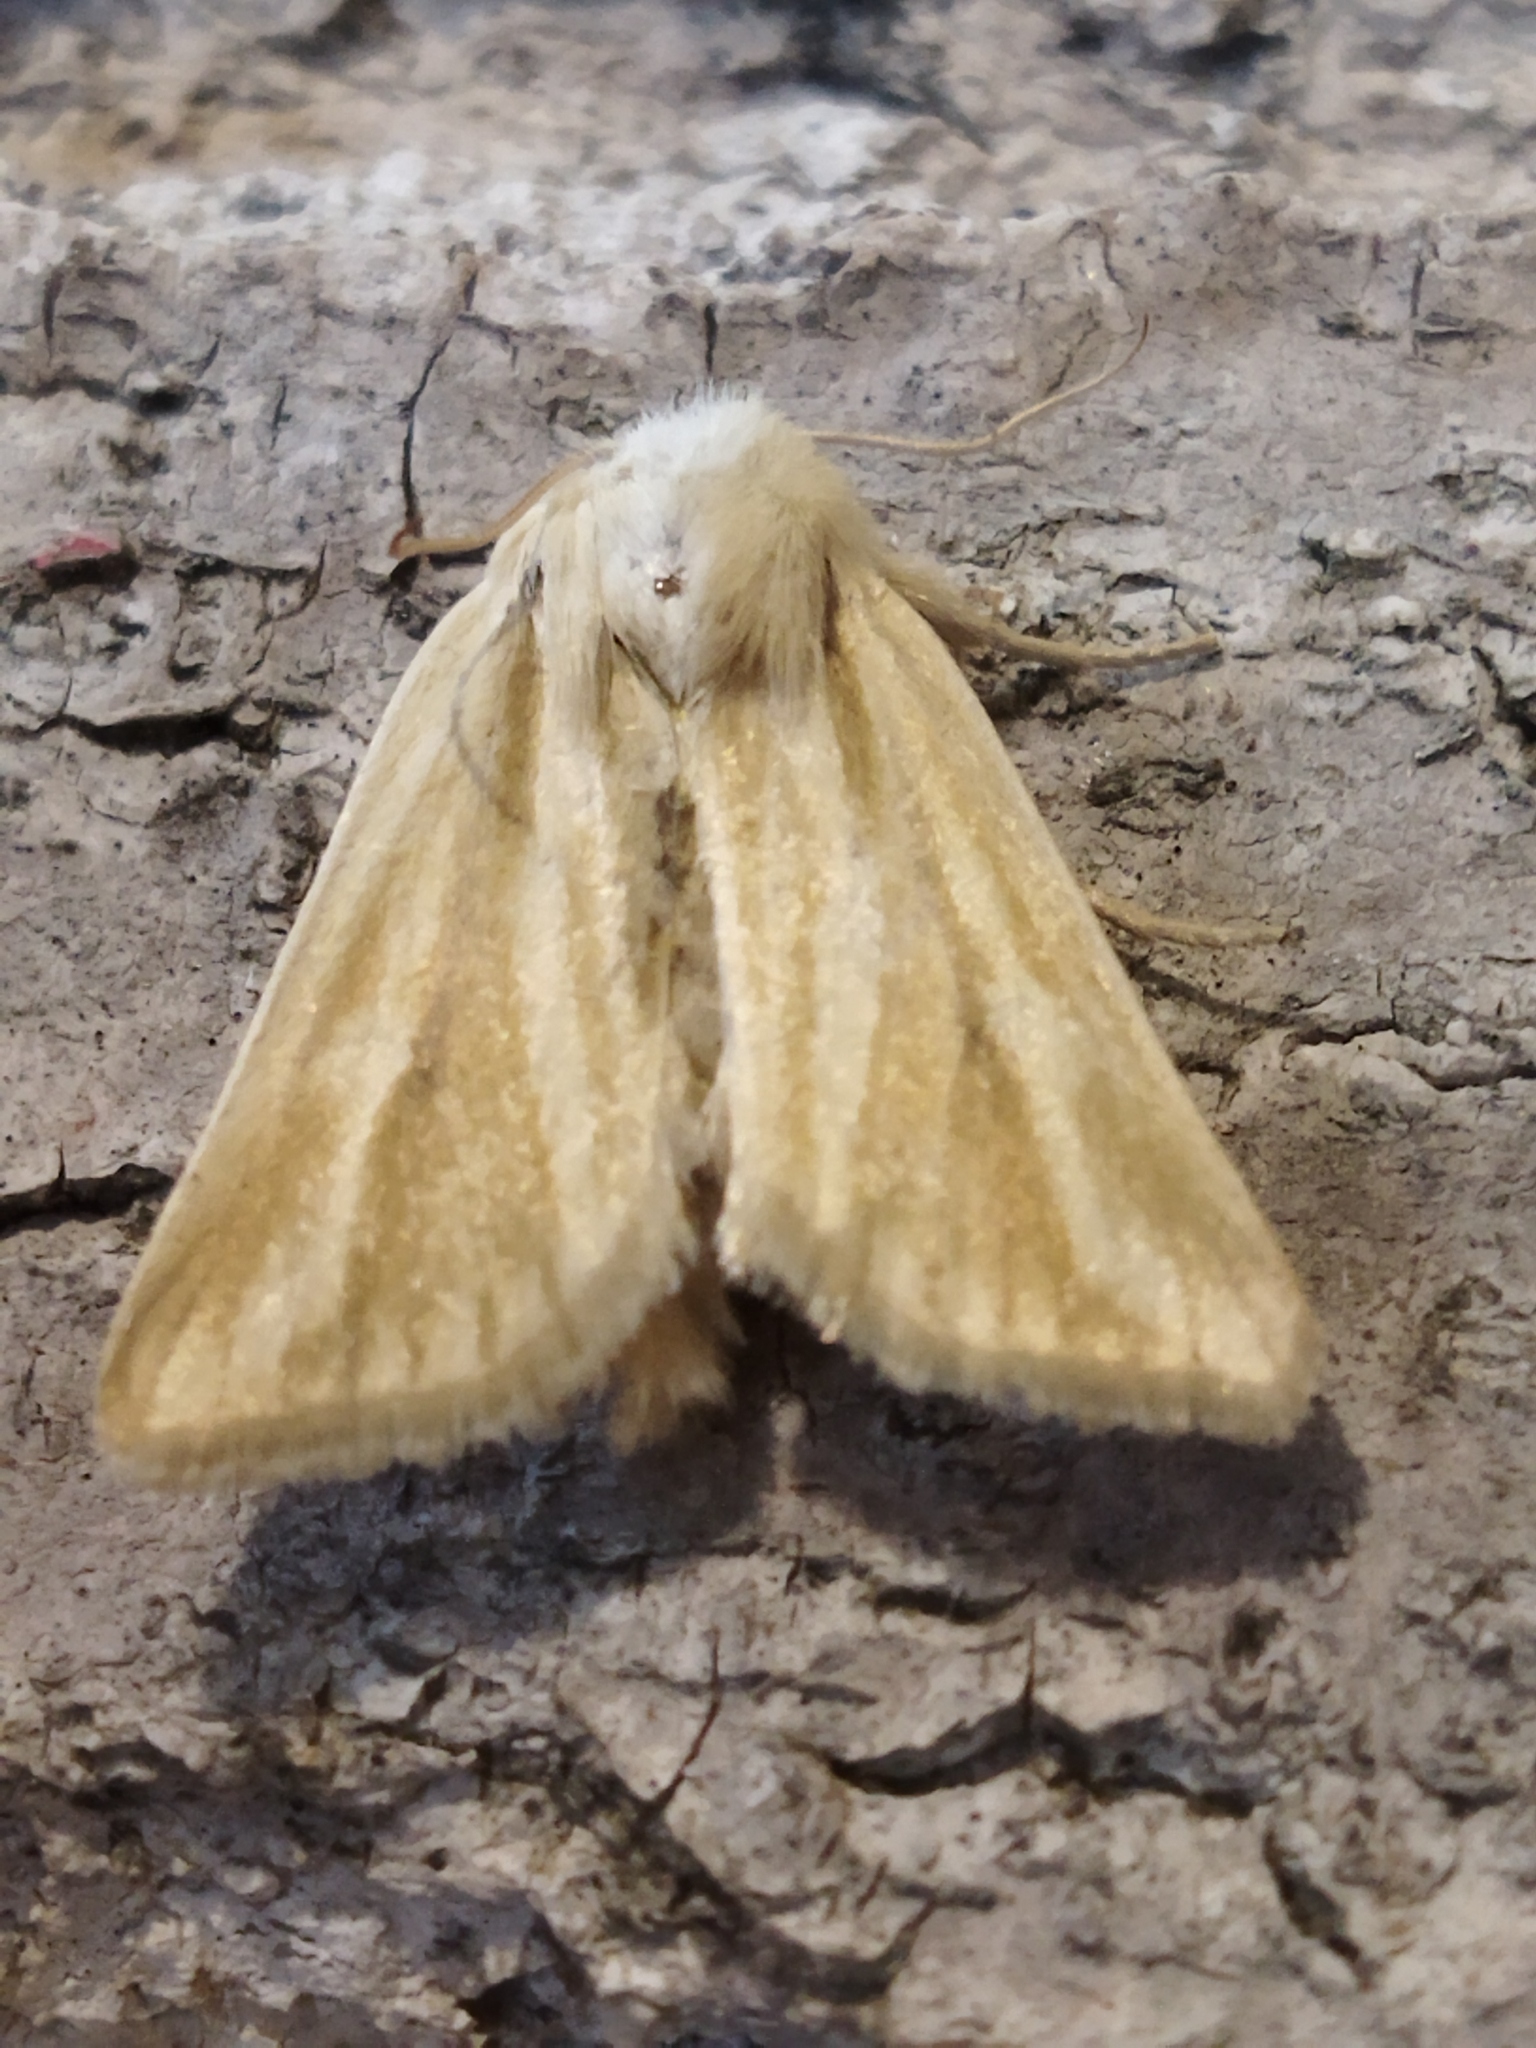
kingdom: Animalia
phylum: Arthropoda
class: Insecta
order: Lepidoptera
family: Noctuidae
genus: Oria
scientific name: Oria musculosa
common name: Brighton wainscot
